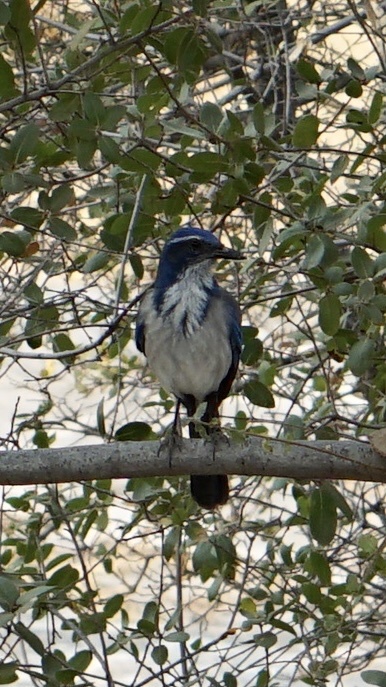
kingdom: Animalia
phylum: Chordata
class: Aves
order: Passeriformes
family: Corvidae
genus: Aphelocoma
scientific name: Aphelocoma californica
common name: California scrub-jay
